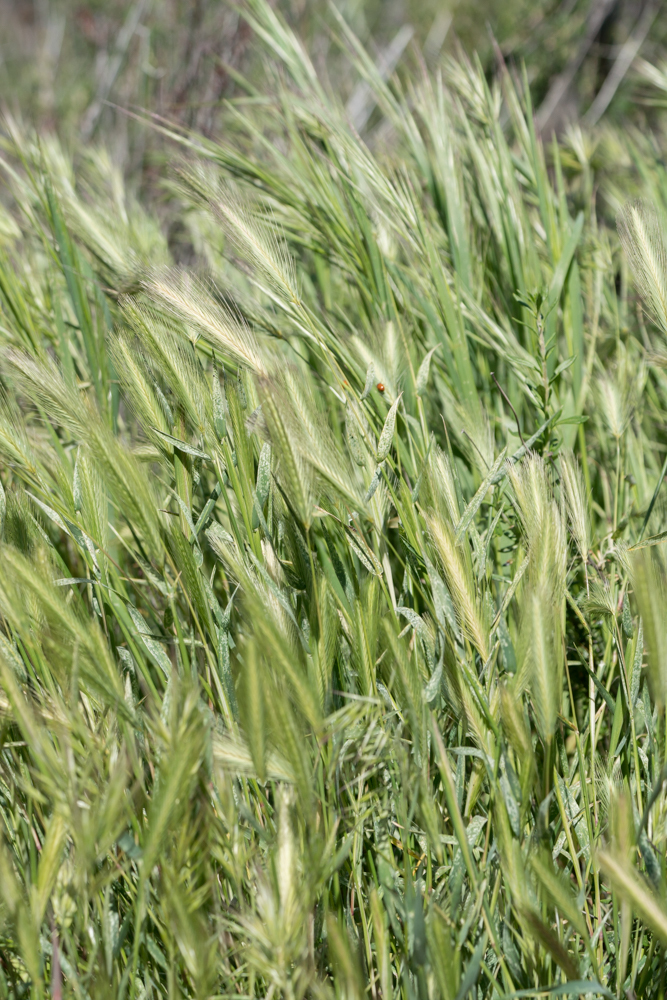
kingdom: Plantae
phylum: Tracheophyta
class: Liliopsida
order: Poales
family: Poaceae
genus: Hordeum
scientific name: Hordeum murinum
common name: Wall barley
